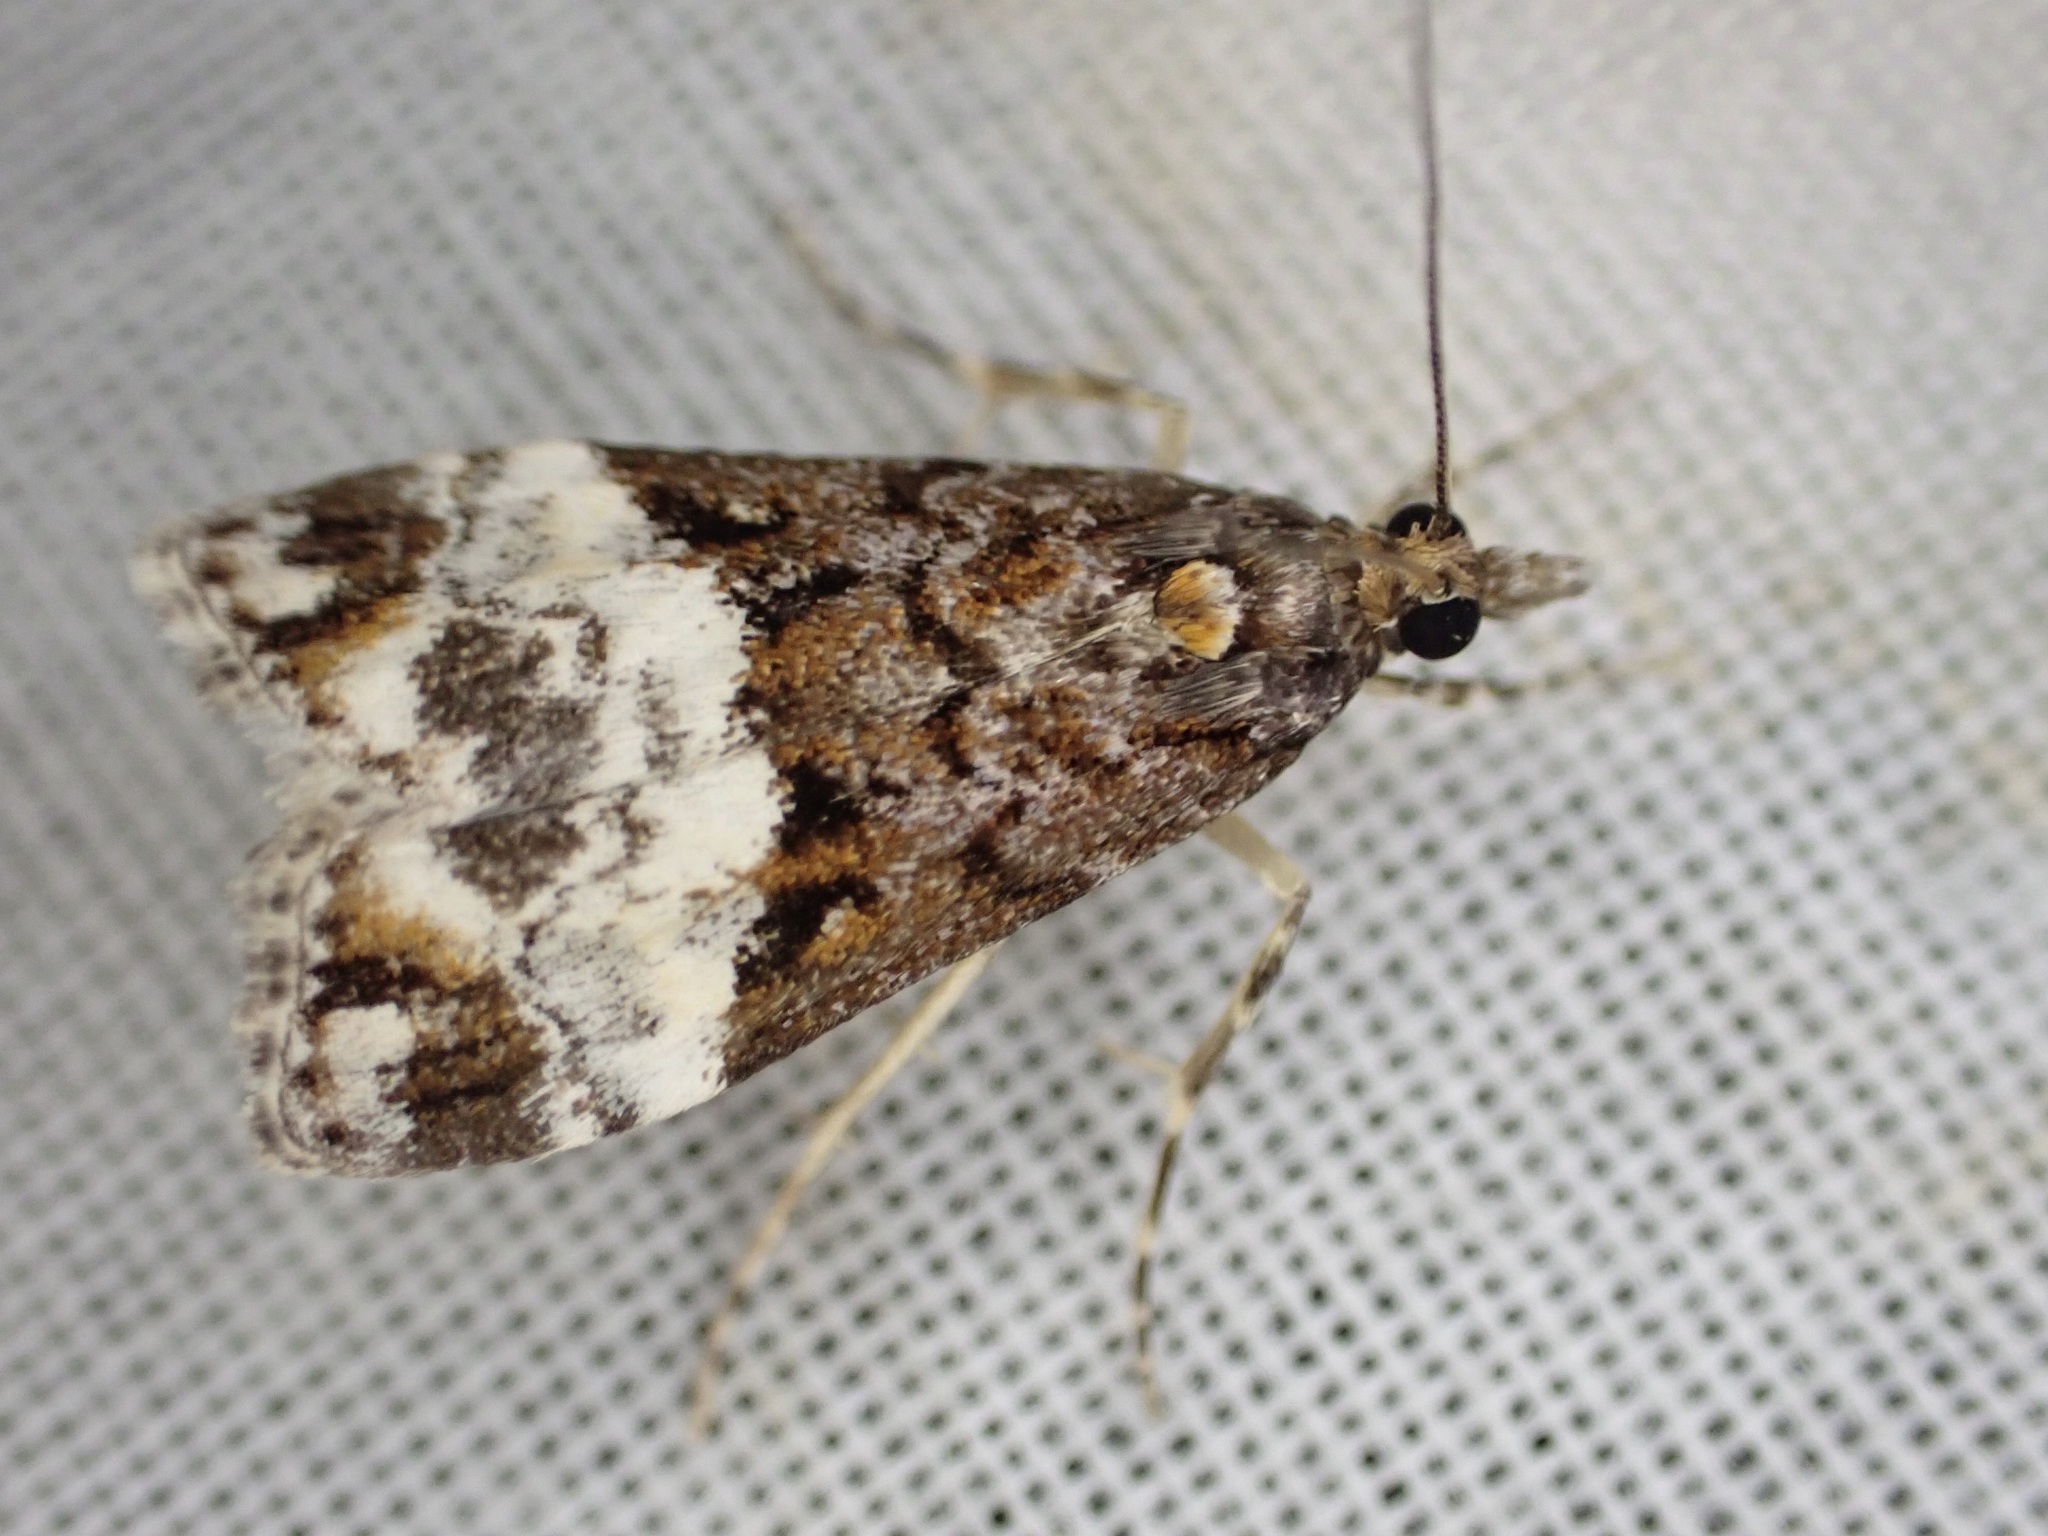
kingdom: Animalia
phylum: Arthropoda
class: Insecta
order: Lepidoptera
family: Crambidae
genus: Scoparia
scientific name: Scoparia minusculalis
